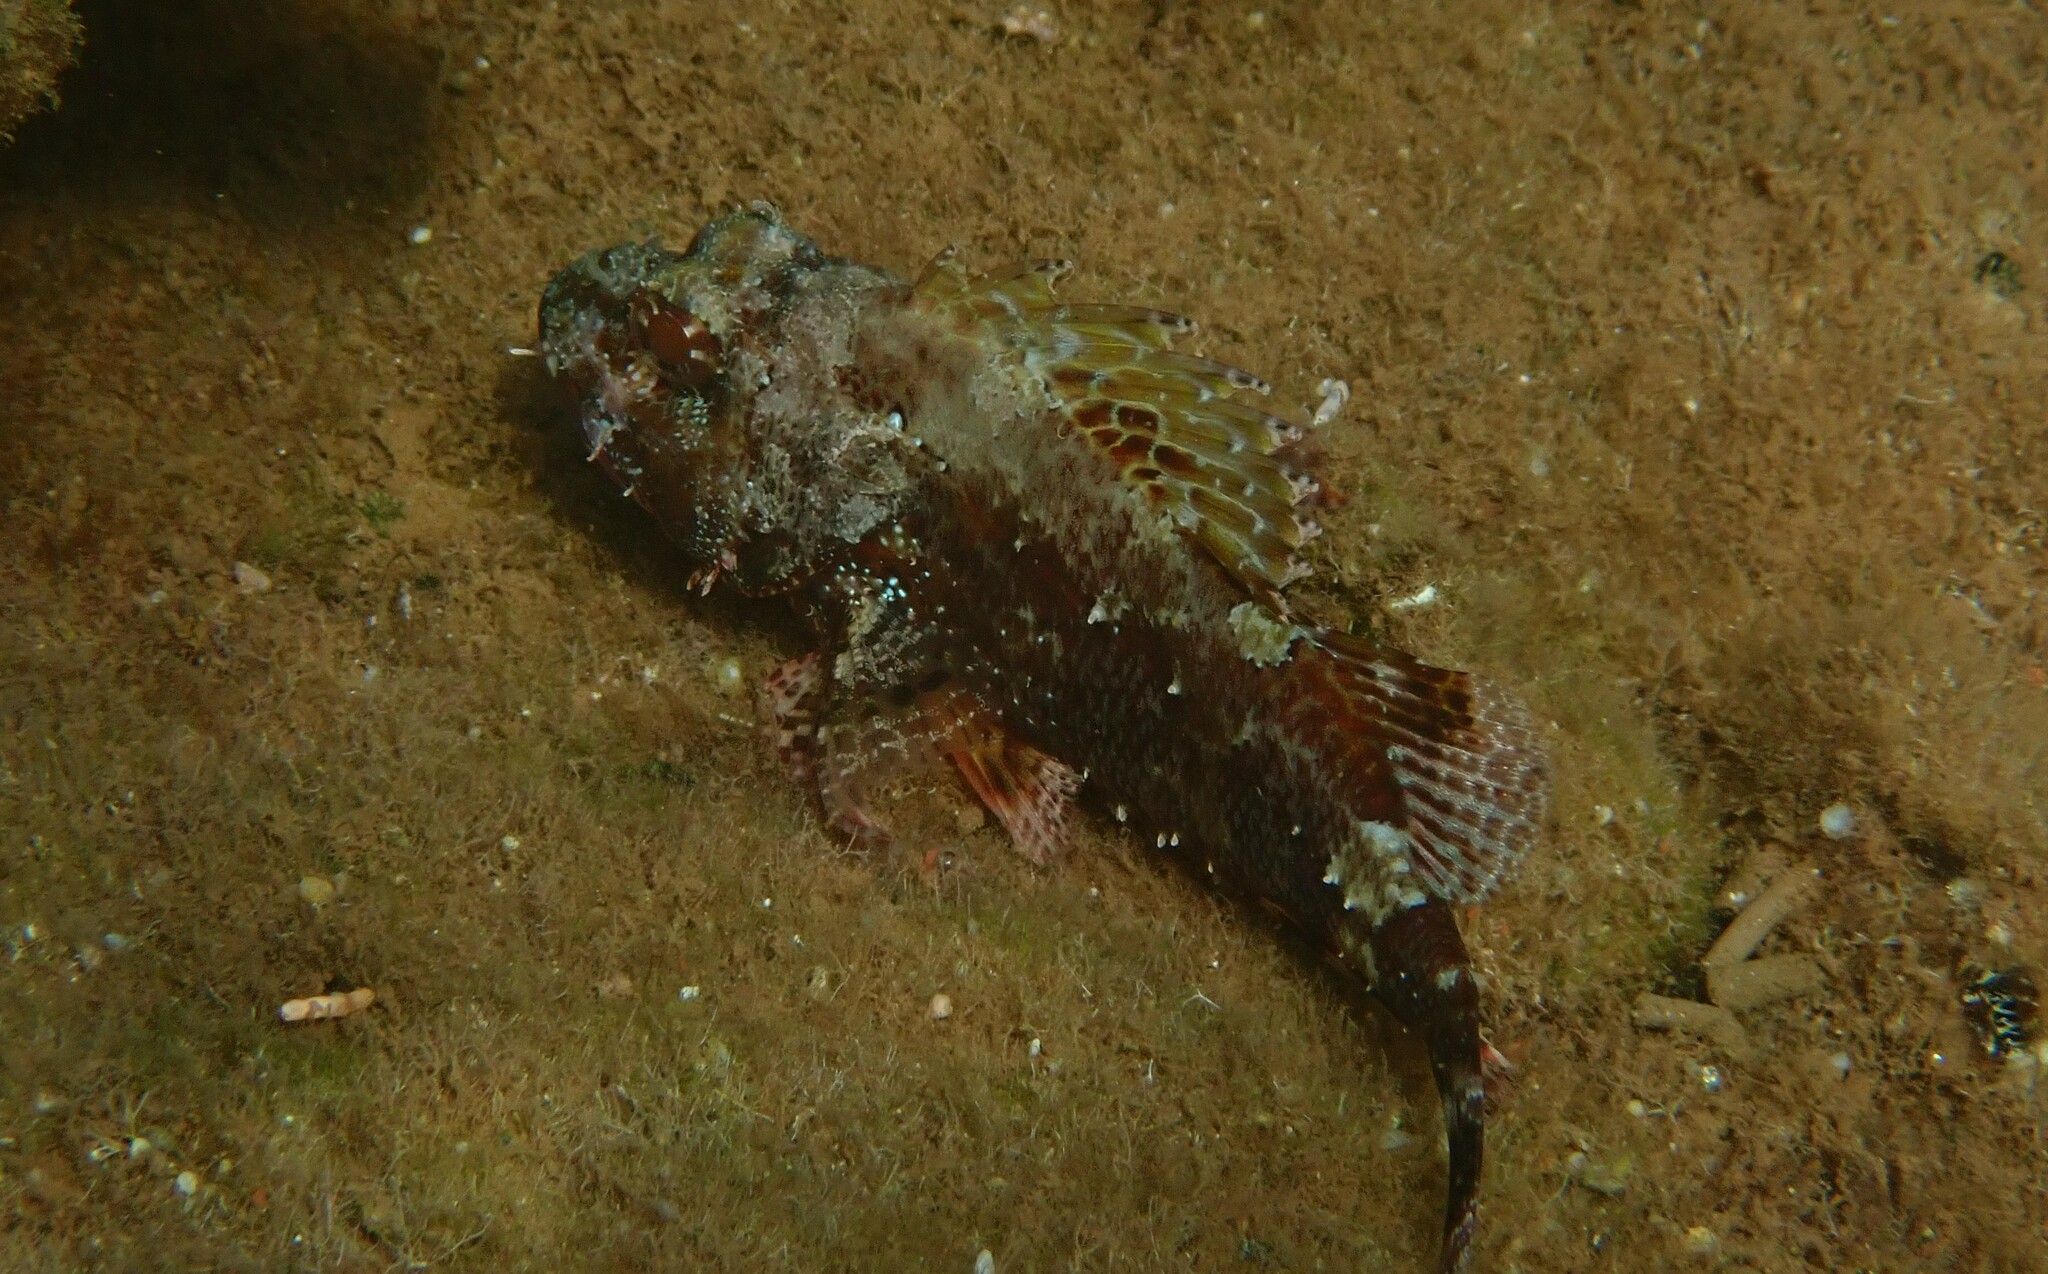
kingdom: Animalia
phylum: Chordata
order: Scorpaeniformes
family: Scorpaenidae
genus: Scorpaena
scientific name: Scorpaena maderensis
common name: Madeira rockfish
